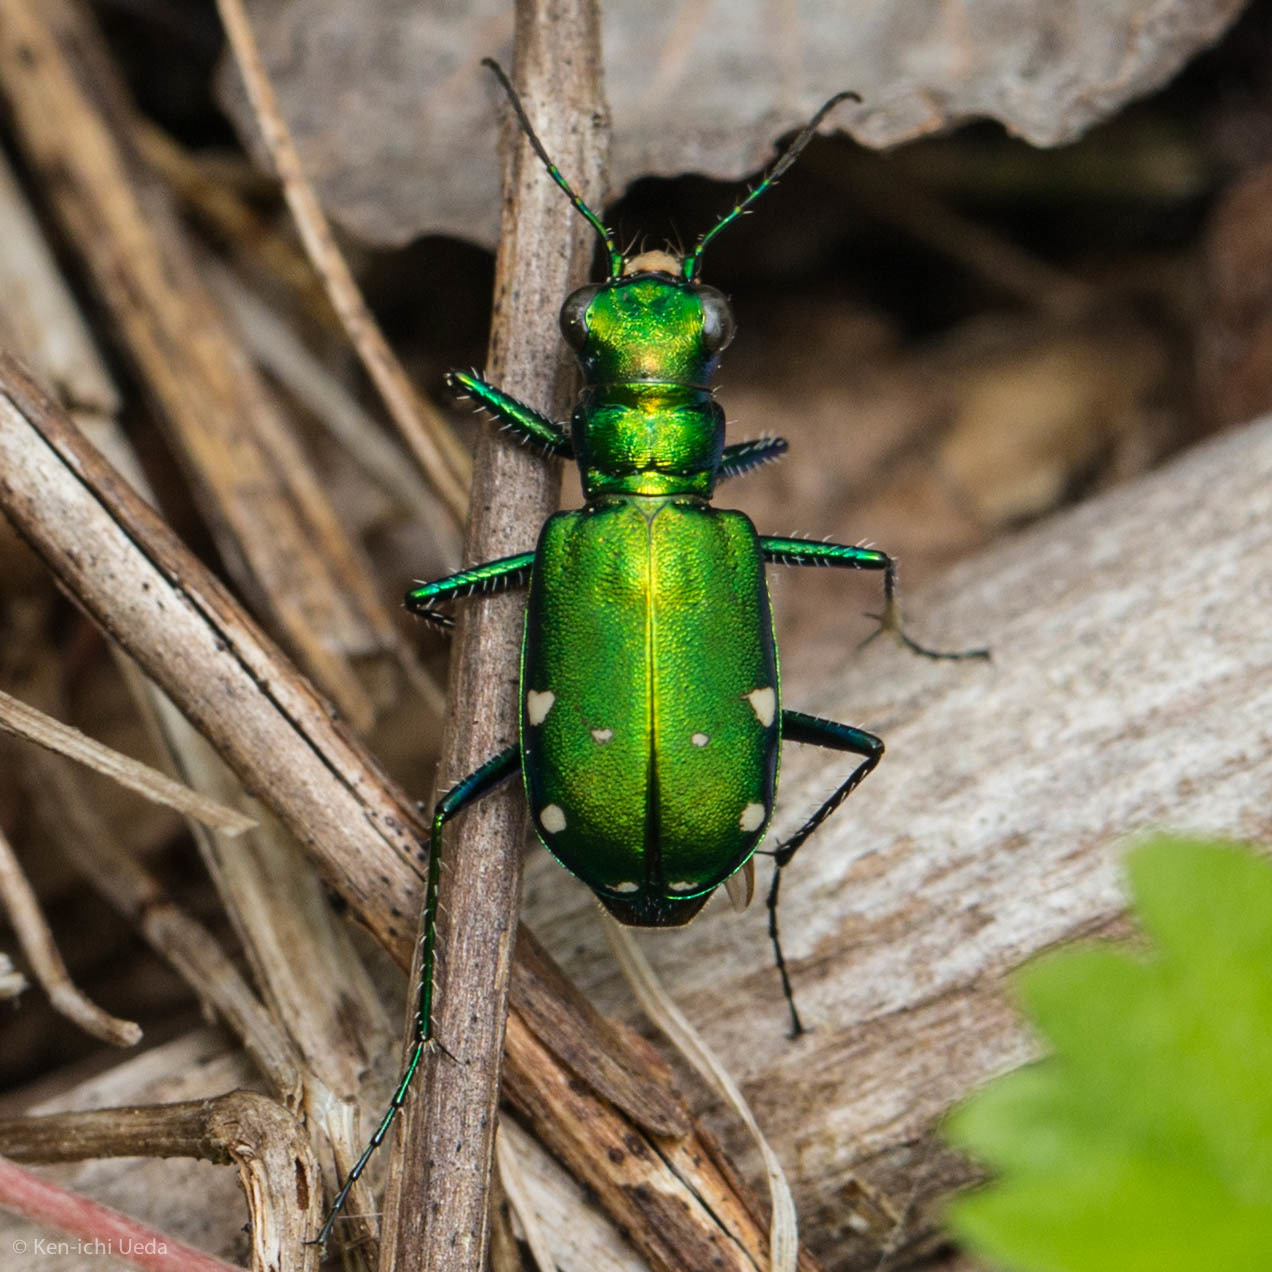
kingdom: Animalia
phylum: Arthropoda
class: Insecta
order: Coleoptera
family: Carabidae
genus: Cicindela
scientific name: Cicindela sexguttata
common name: Six-spotted tiger beetle
